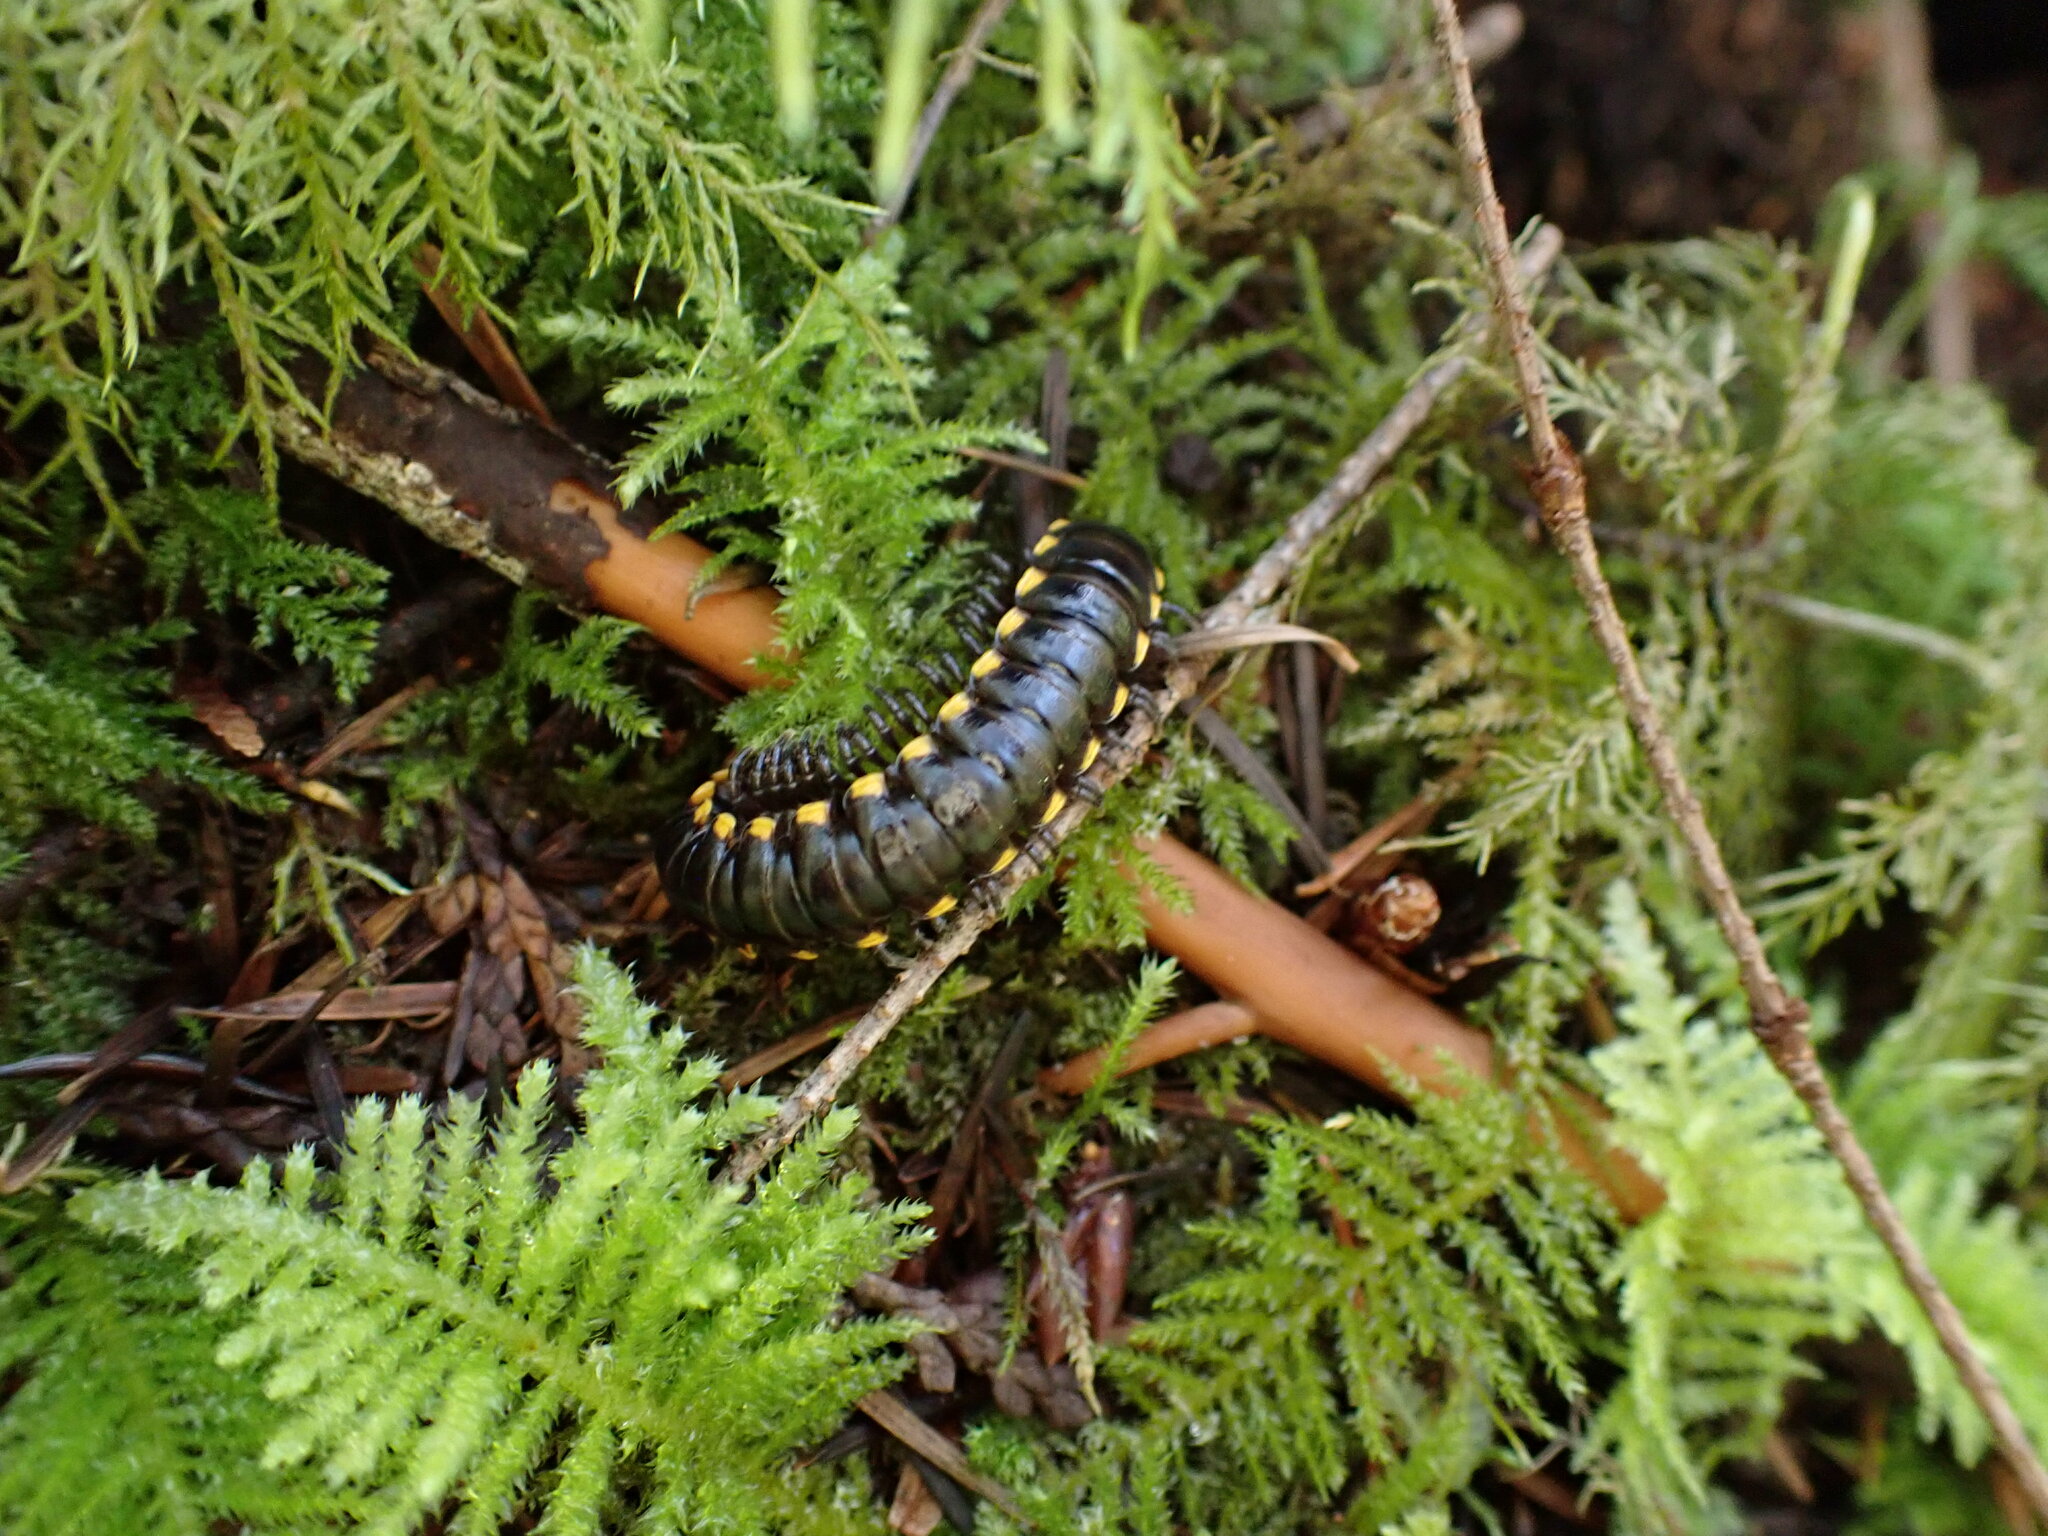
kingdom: Animalia
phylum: Arthropoda
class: Diplopoda
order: Polydesmida
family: Xystodesmidae
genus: Harpaphe
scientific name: Harpaphe haydeniana
